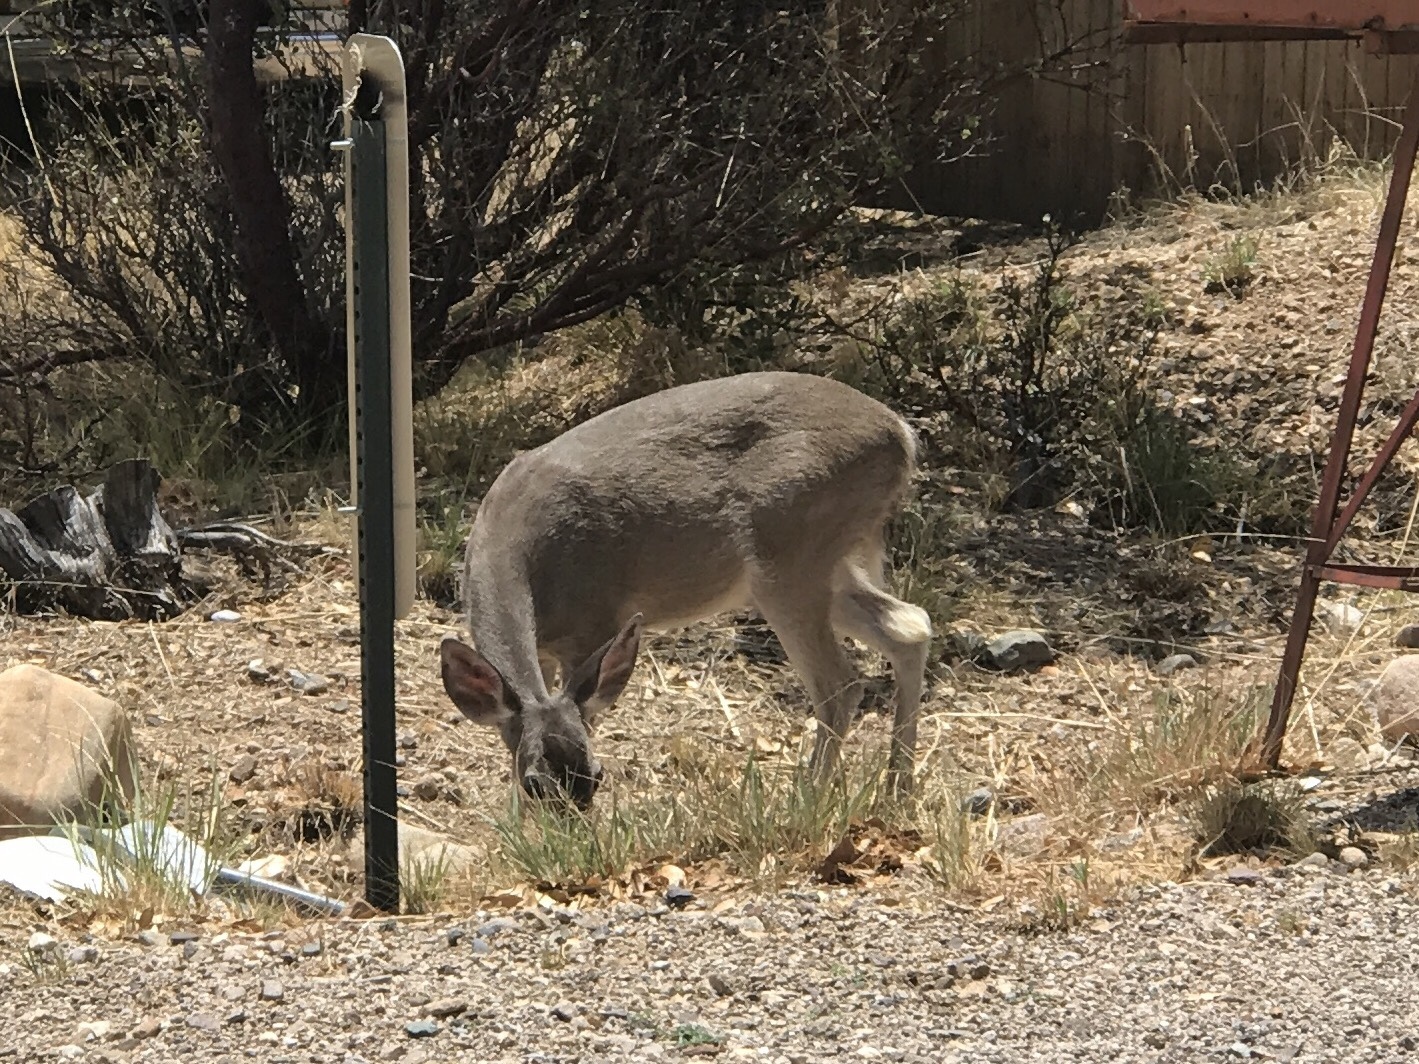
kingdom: Animalia
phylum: Chordata
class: Mammalia
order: Artiodactyla
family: Cervidae
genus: Odocoileus
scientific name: Odocoileus virginianus
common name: White-tailed deer
